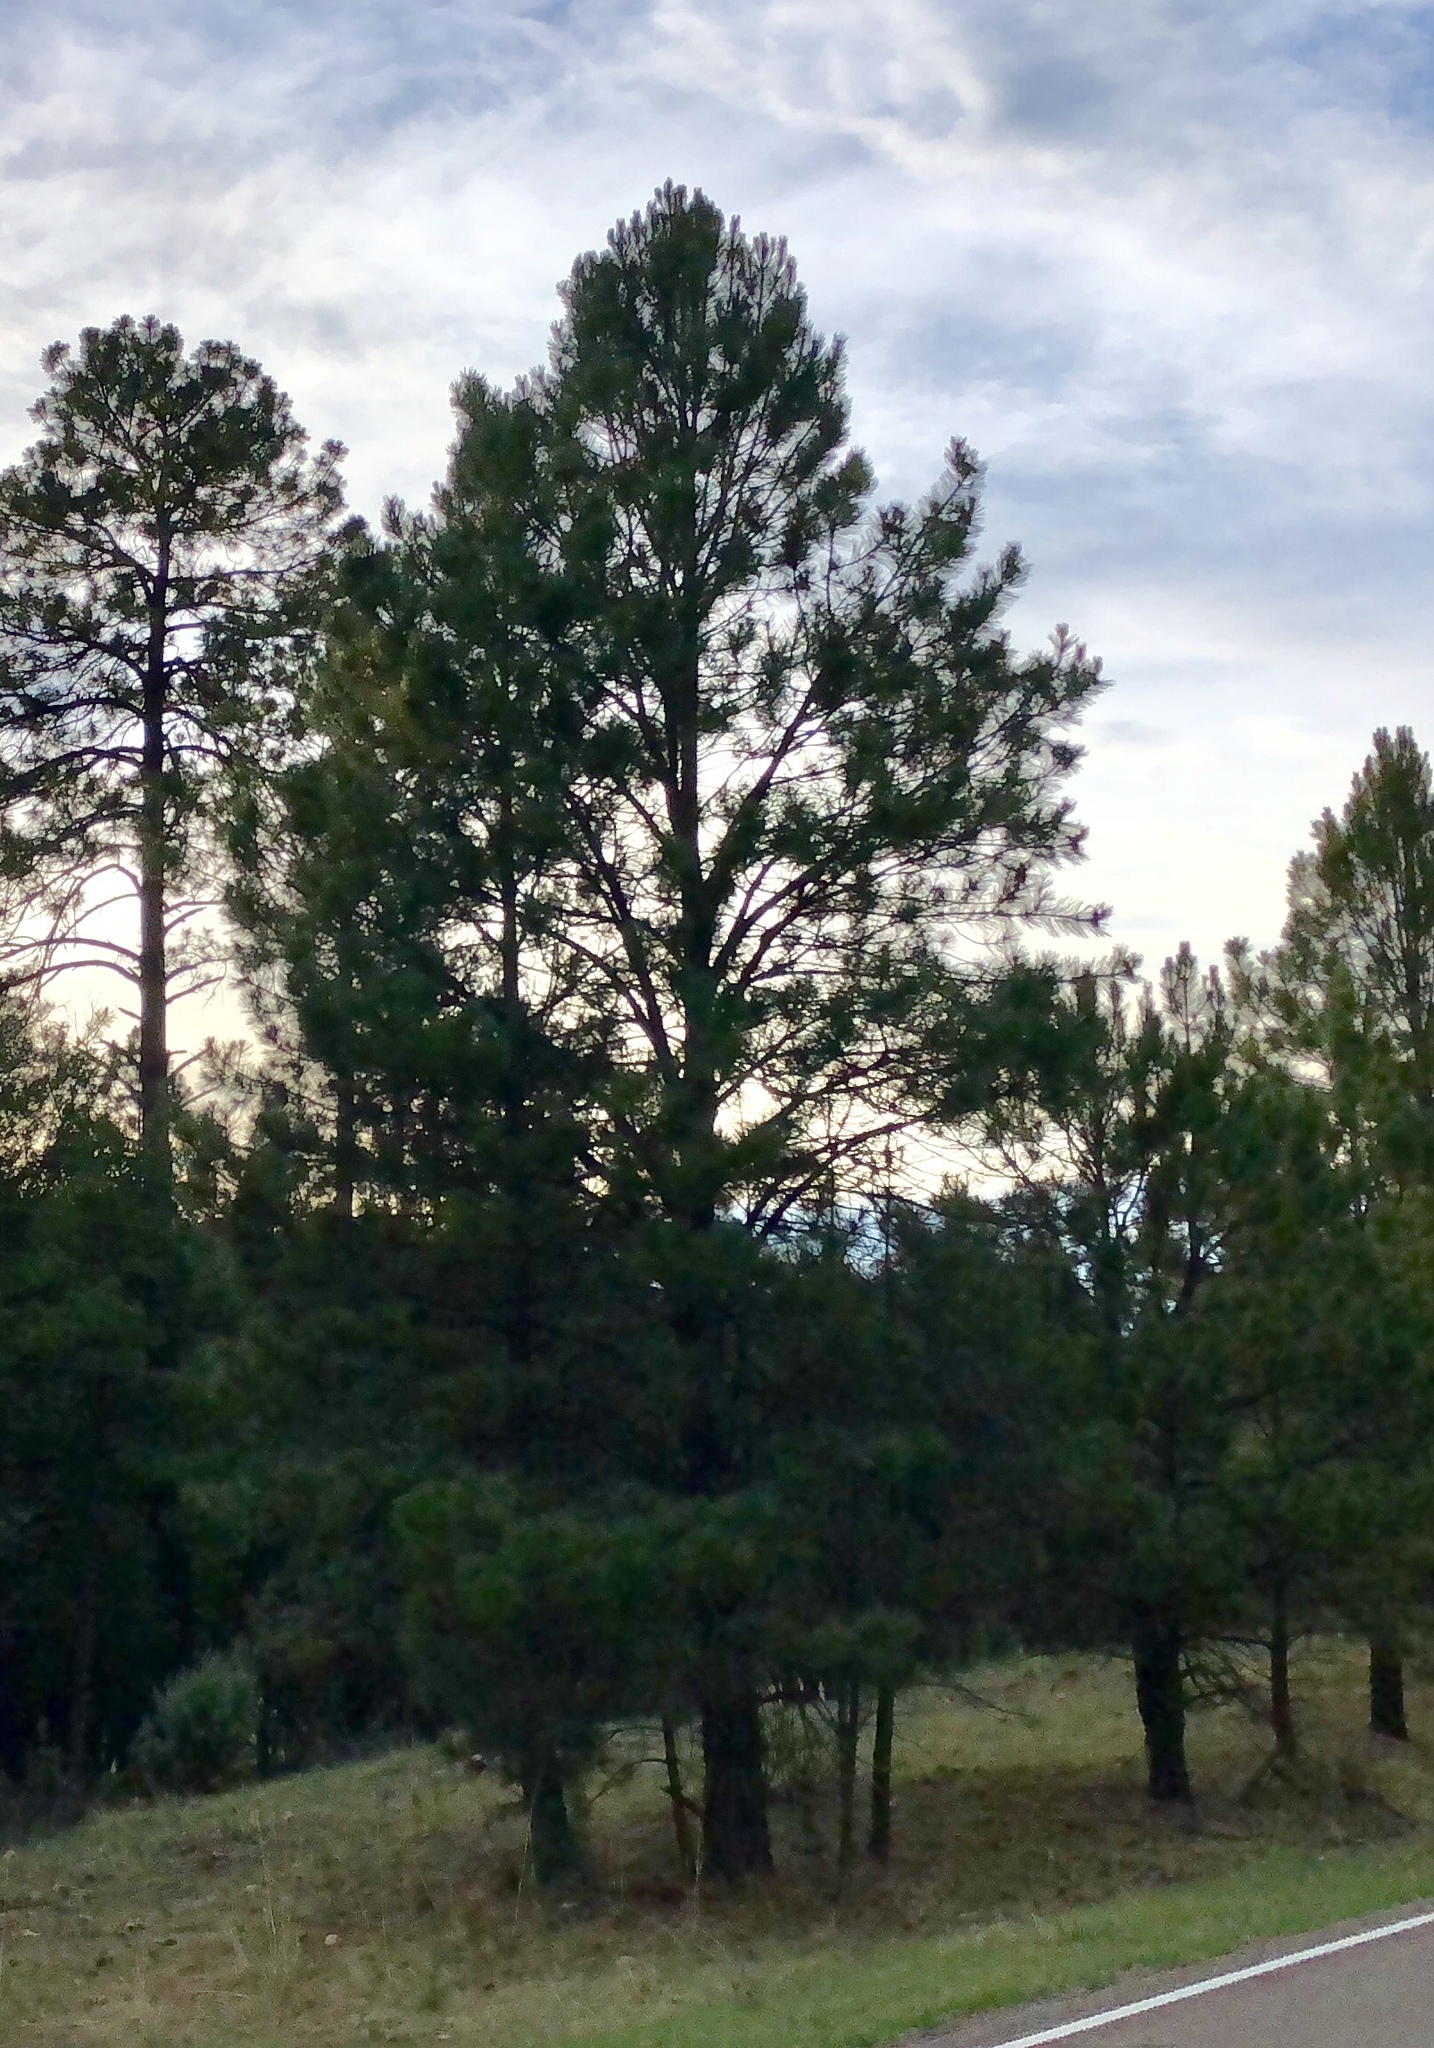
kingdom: Plantae
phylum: Tracheophyta
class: Pinopsida
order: Pinales
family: Pinaceae
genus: Pinus
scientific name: Pinus ponderosa
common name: Western yellow-pine
